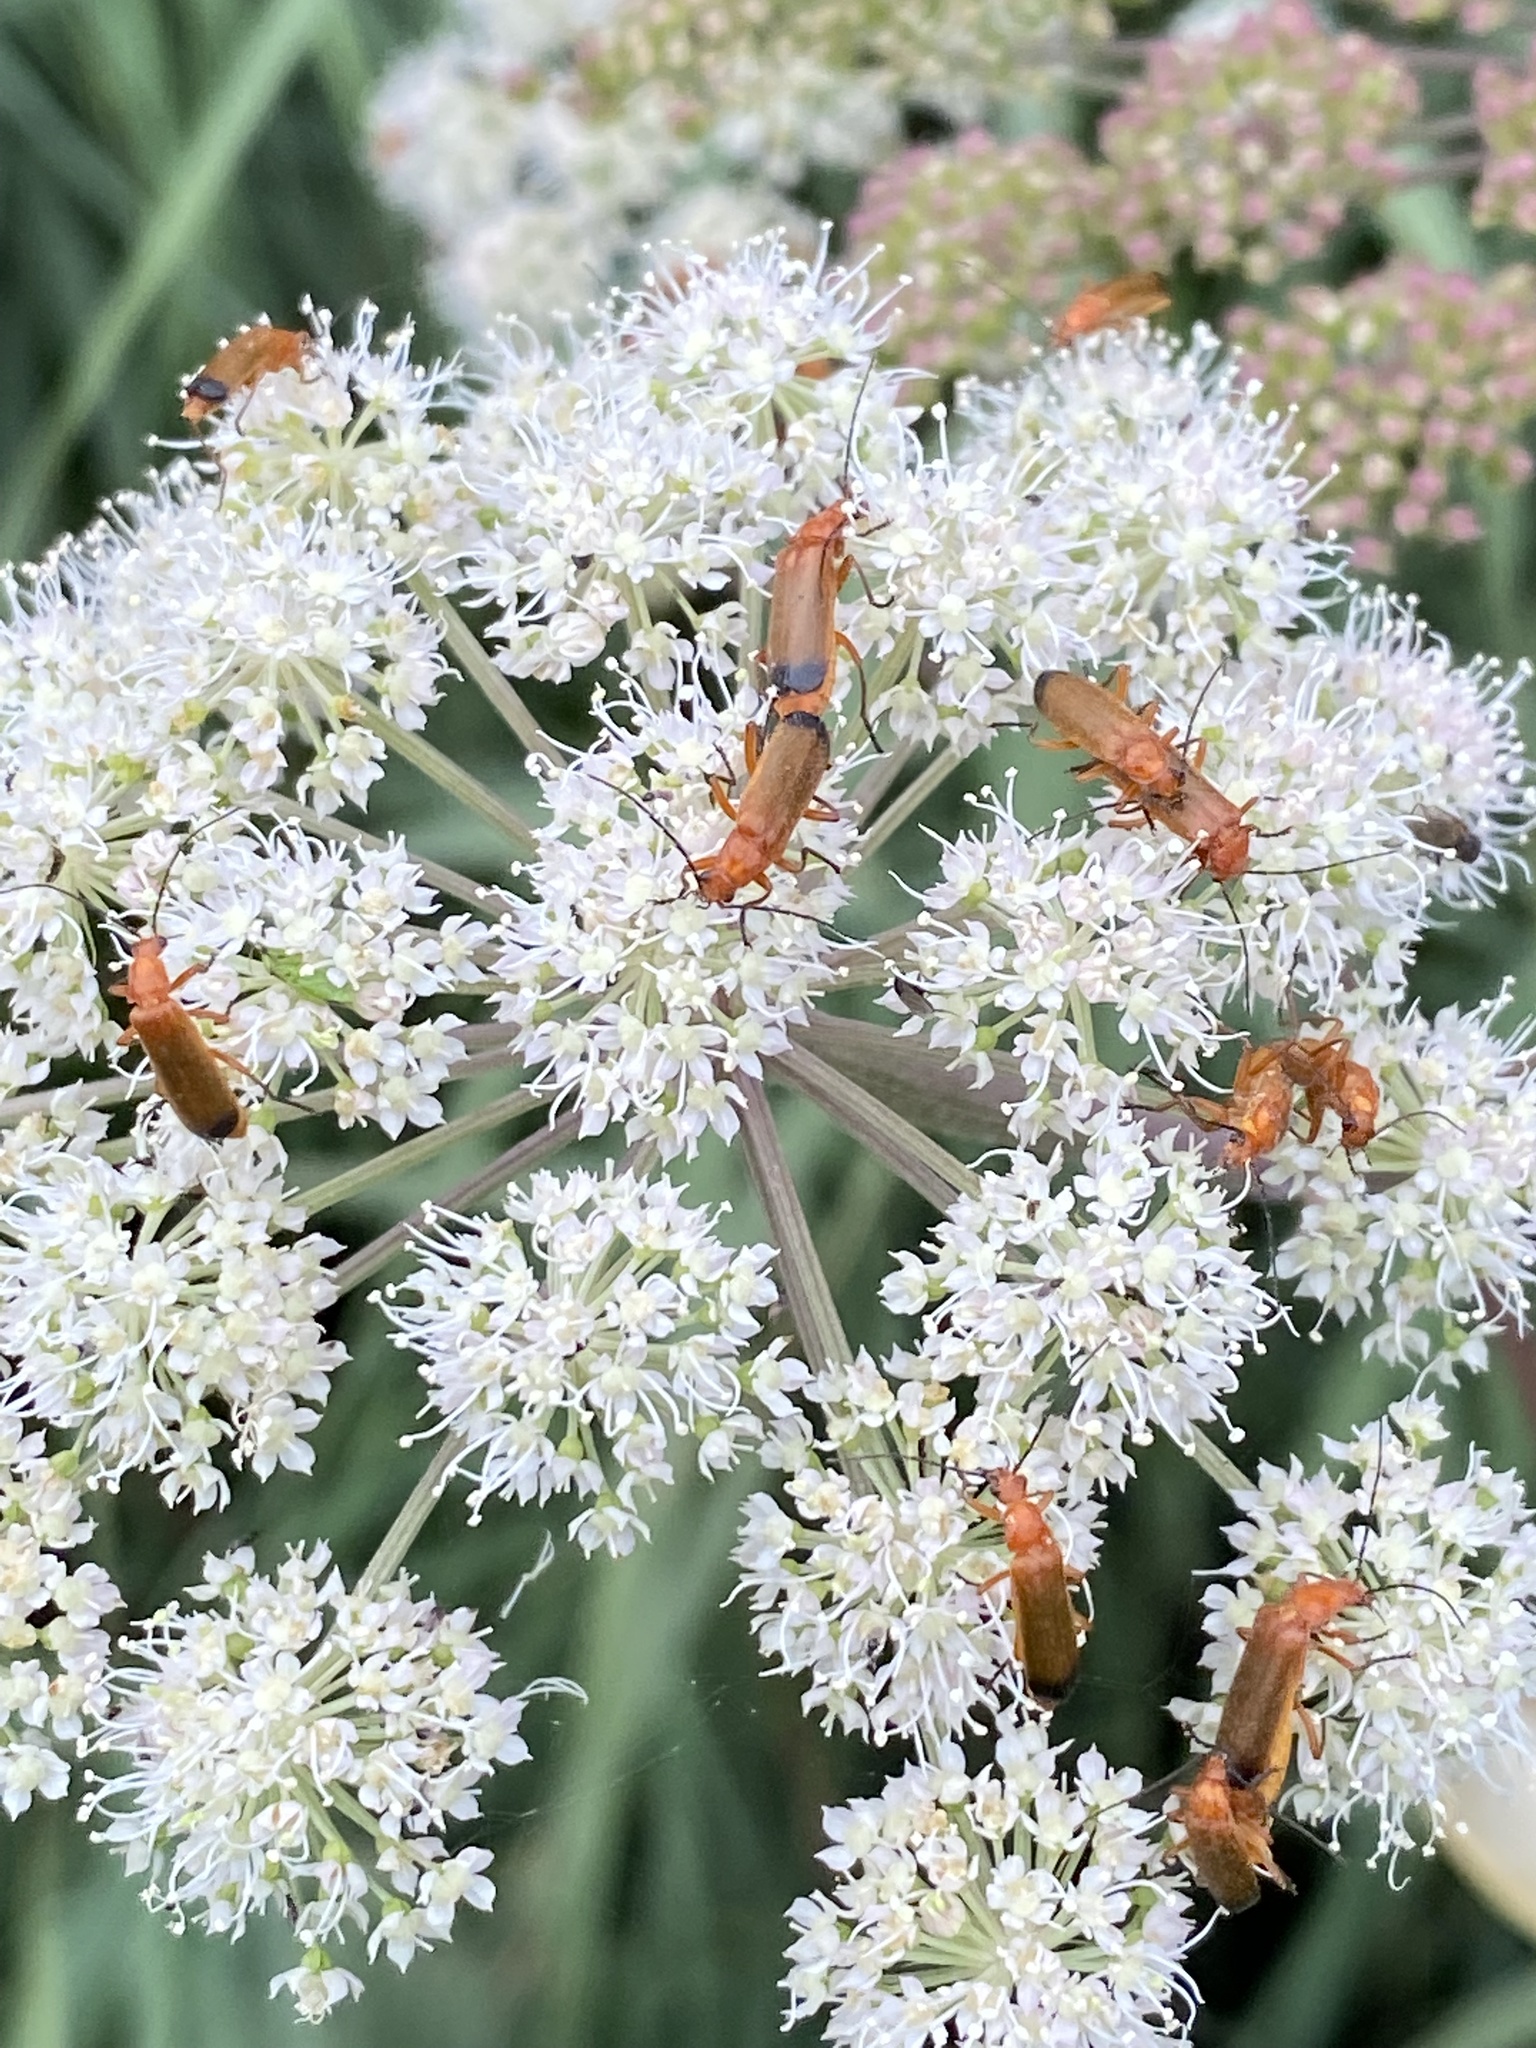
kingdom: Animalia
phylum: Arthropoda
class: Insecta
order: Coleoptera
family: Cantharidae
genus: Rhagonycha
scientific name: Rhagonycha fulva
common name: Common red soldier beetle
